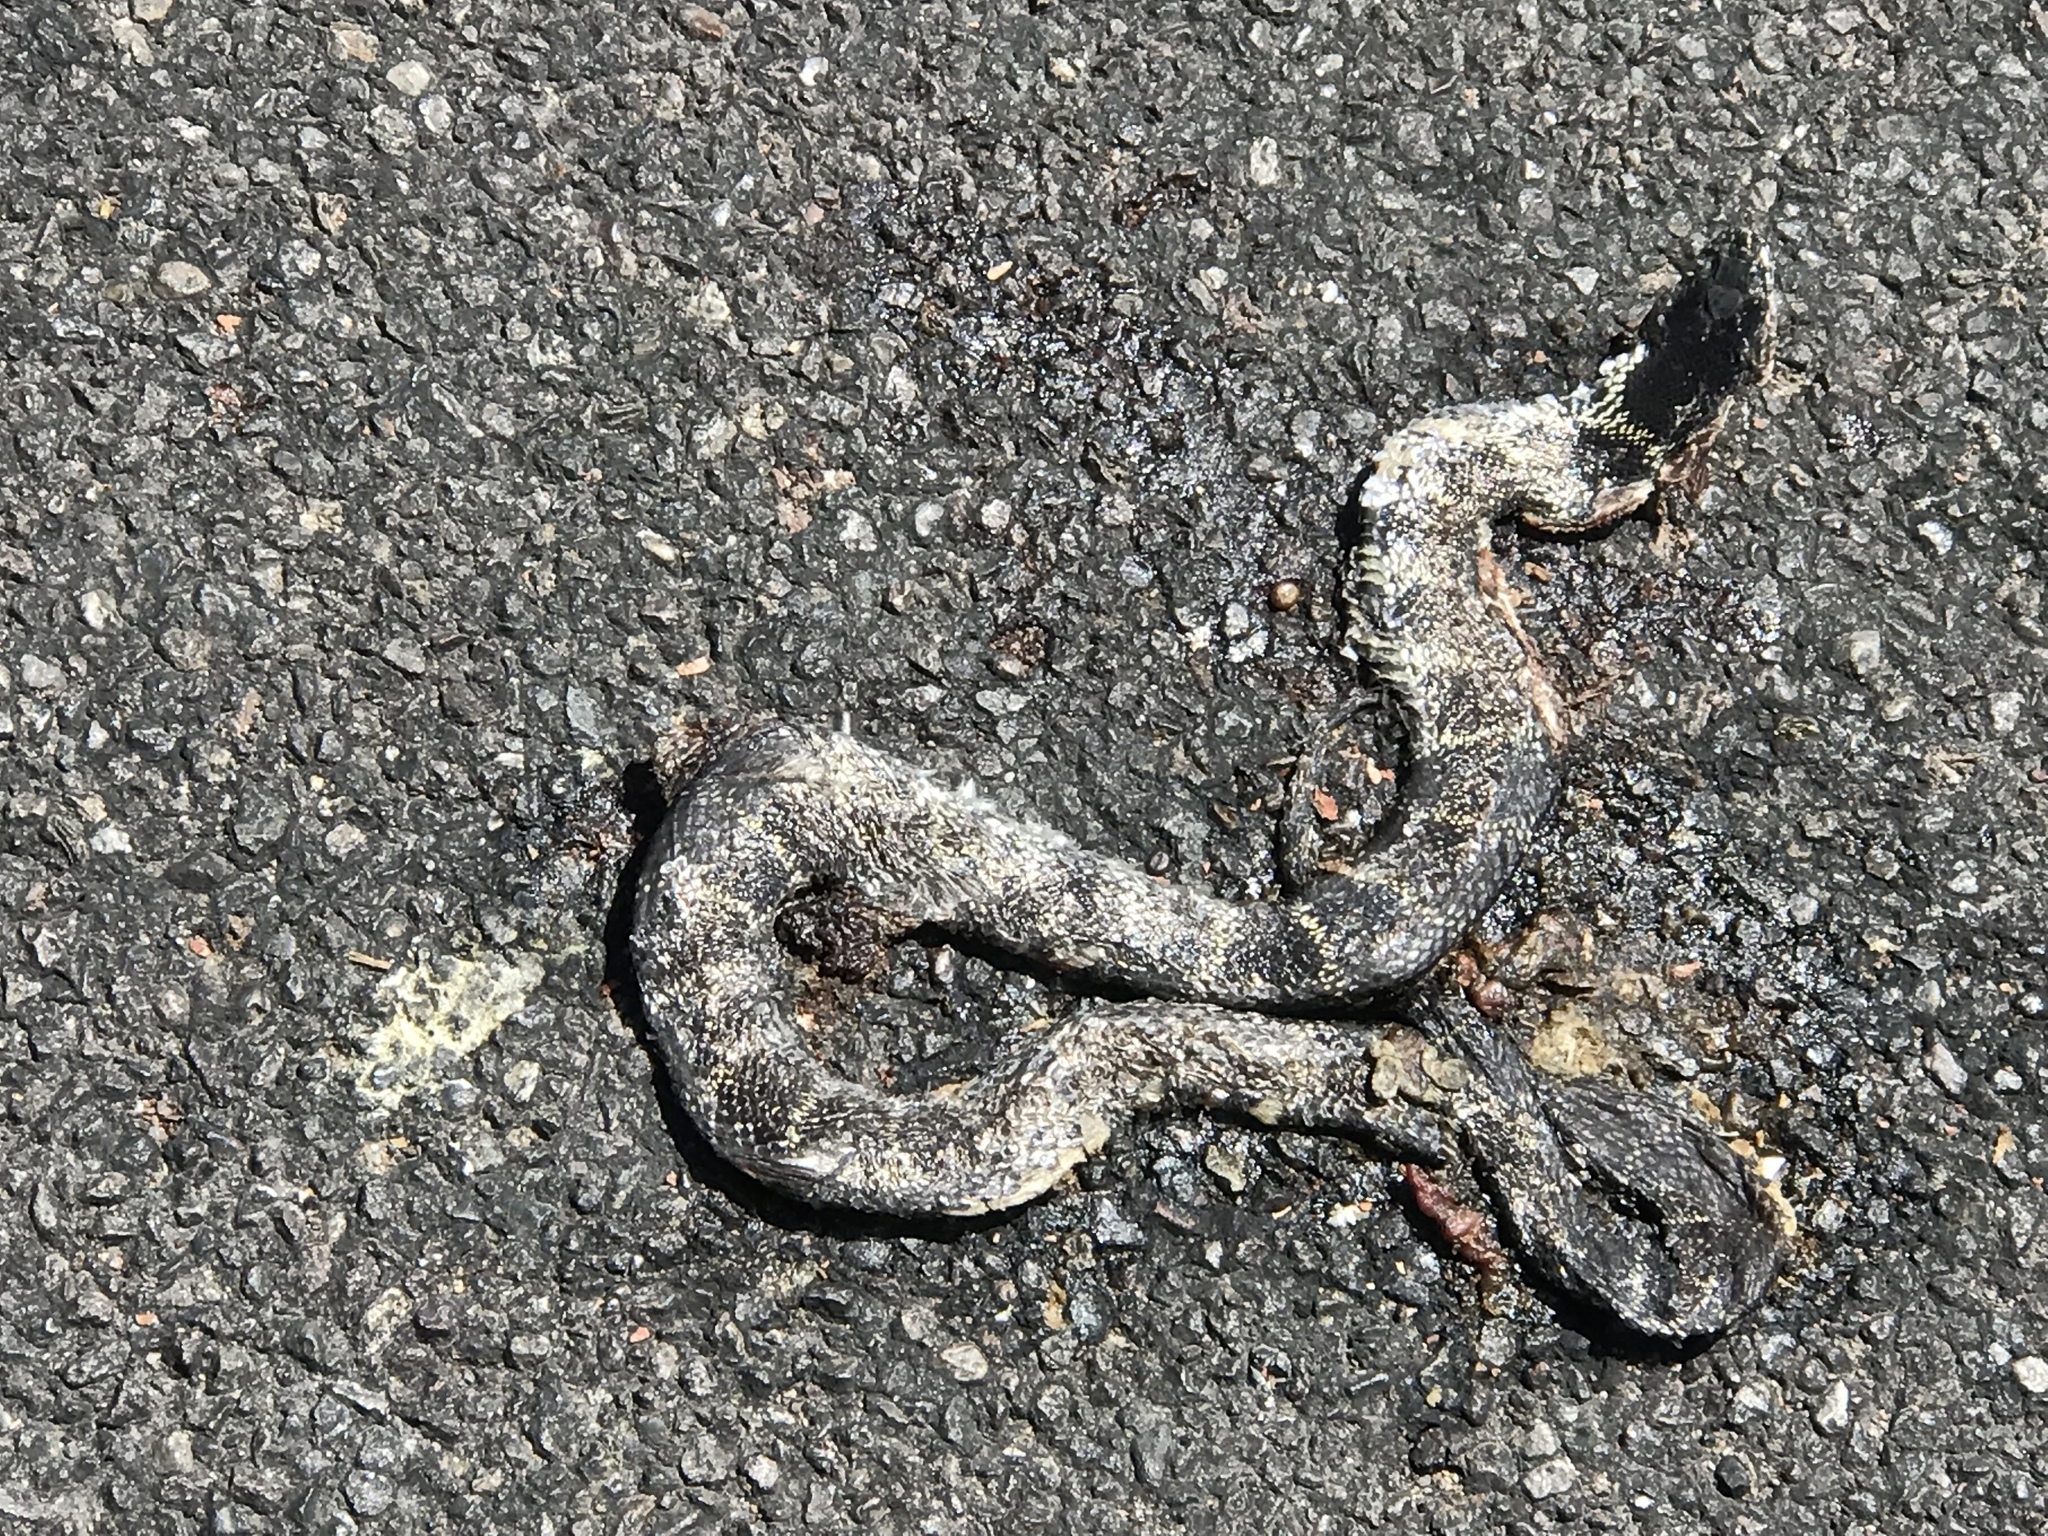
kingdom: Animalia
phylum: Chordata
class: Squamata
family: Colubridae
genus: Lampropeltis
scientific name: Lampropeltis splendida
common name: Desert kingsnake
